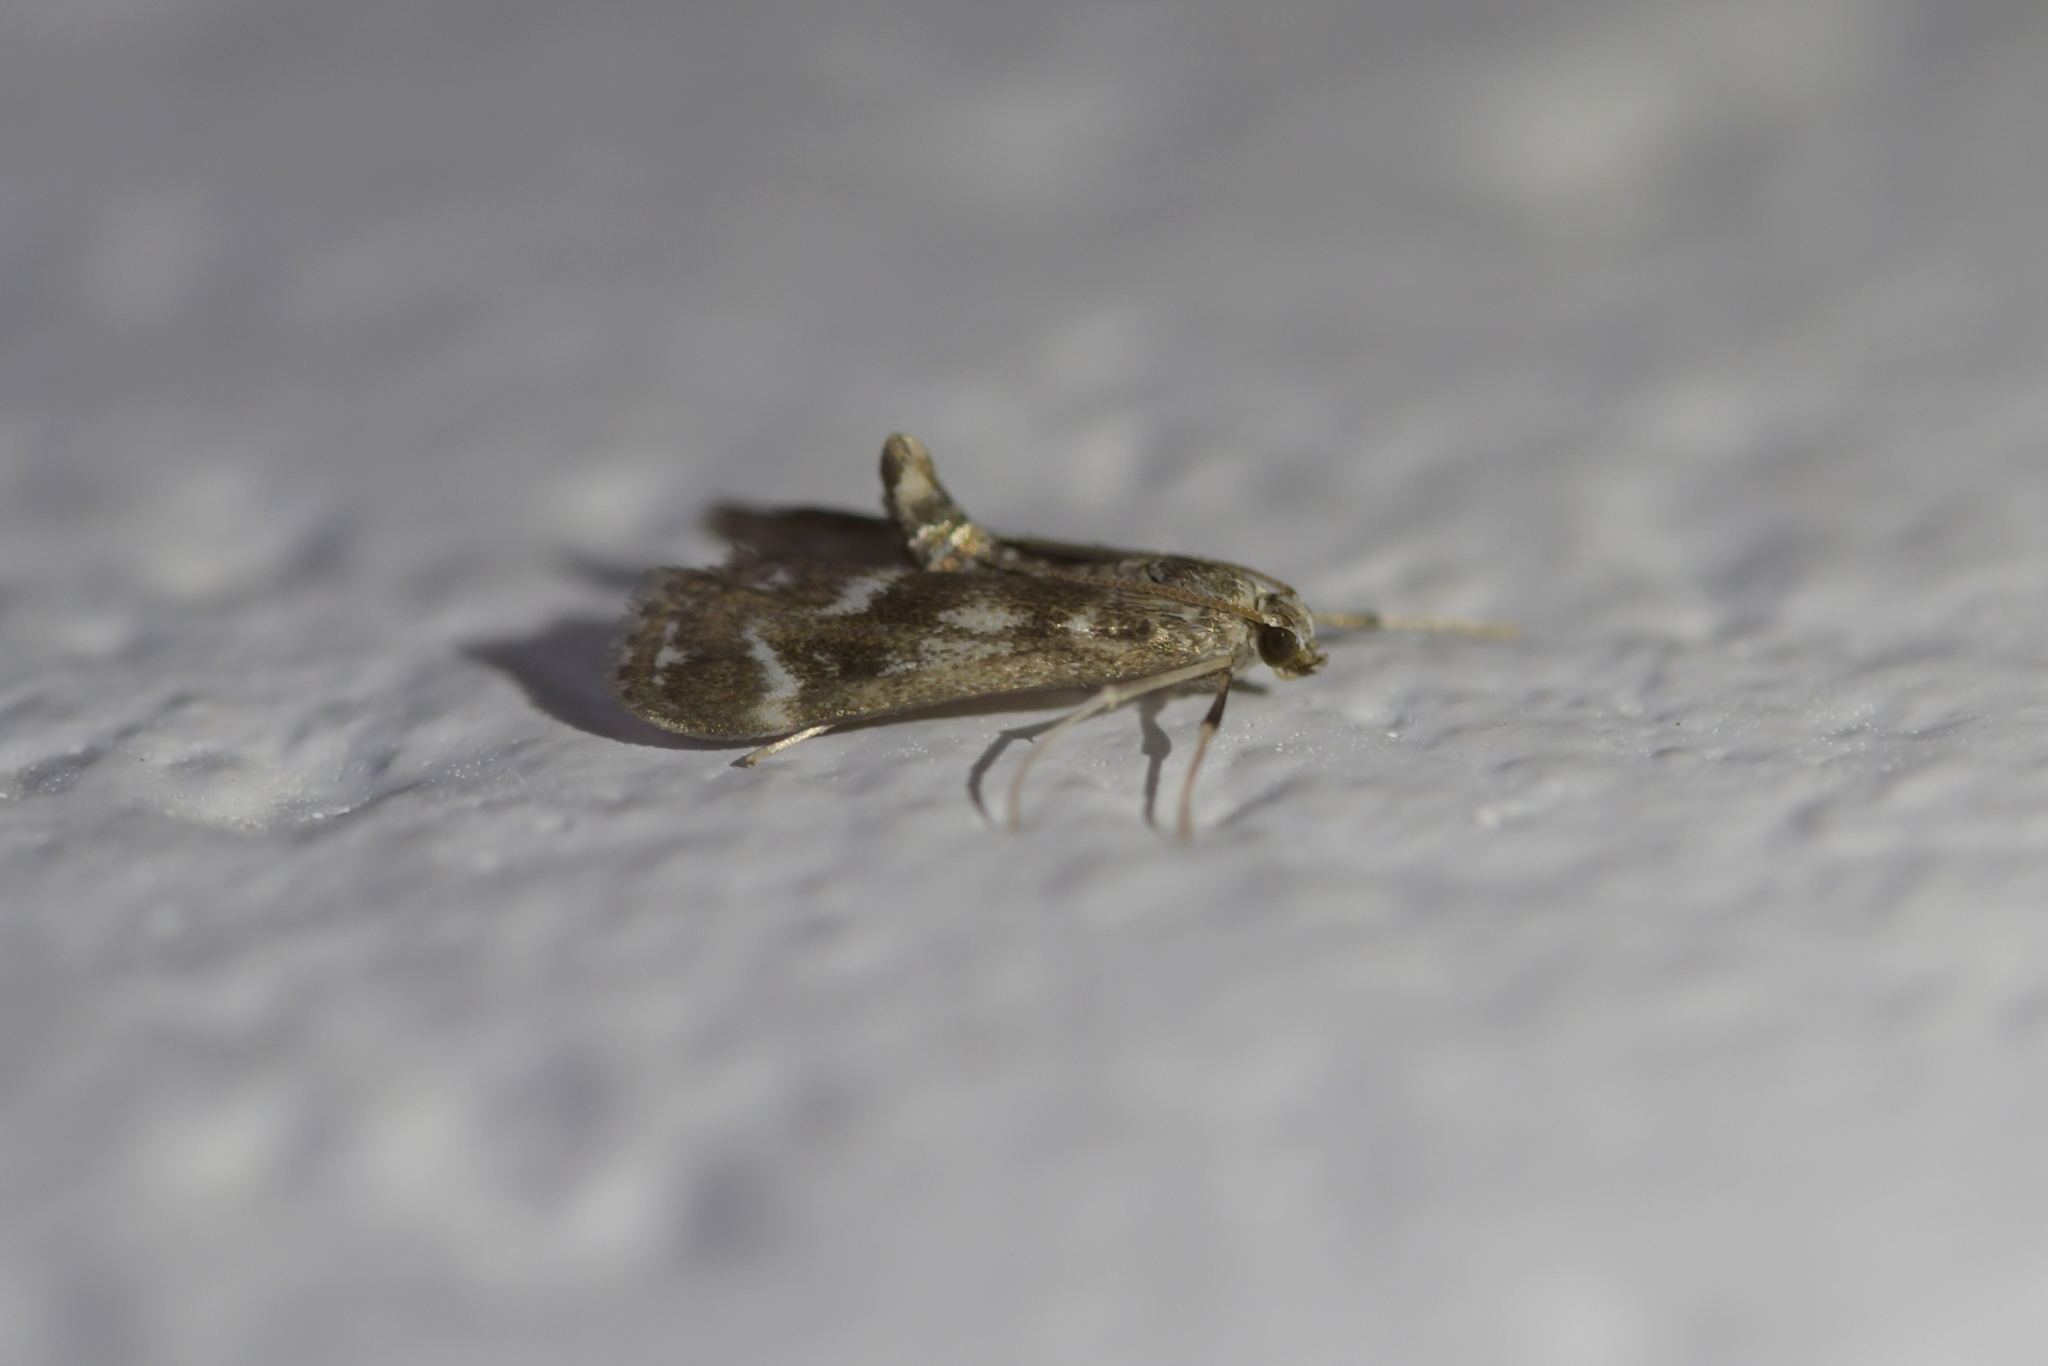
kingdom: Animalia
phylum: Arthropoda
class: Insecta
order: Lepidoptera
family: Crambidae
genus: Hygraula
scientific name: Hygraula nitens
